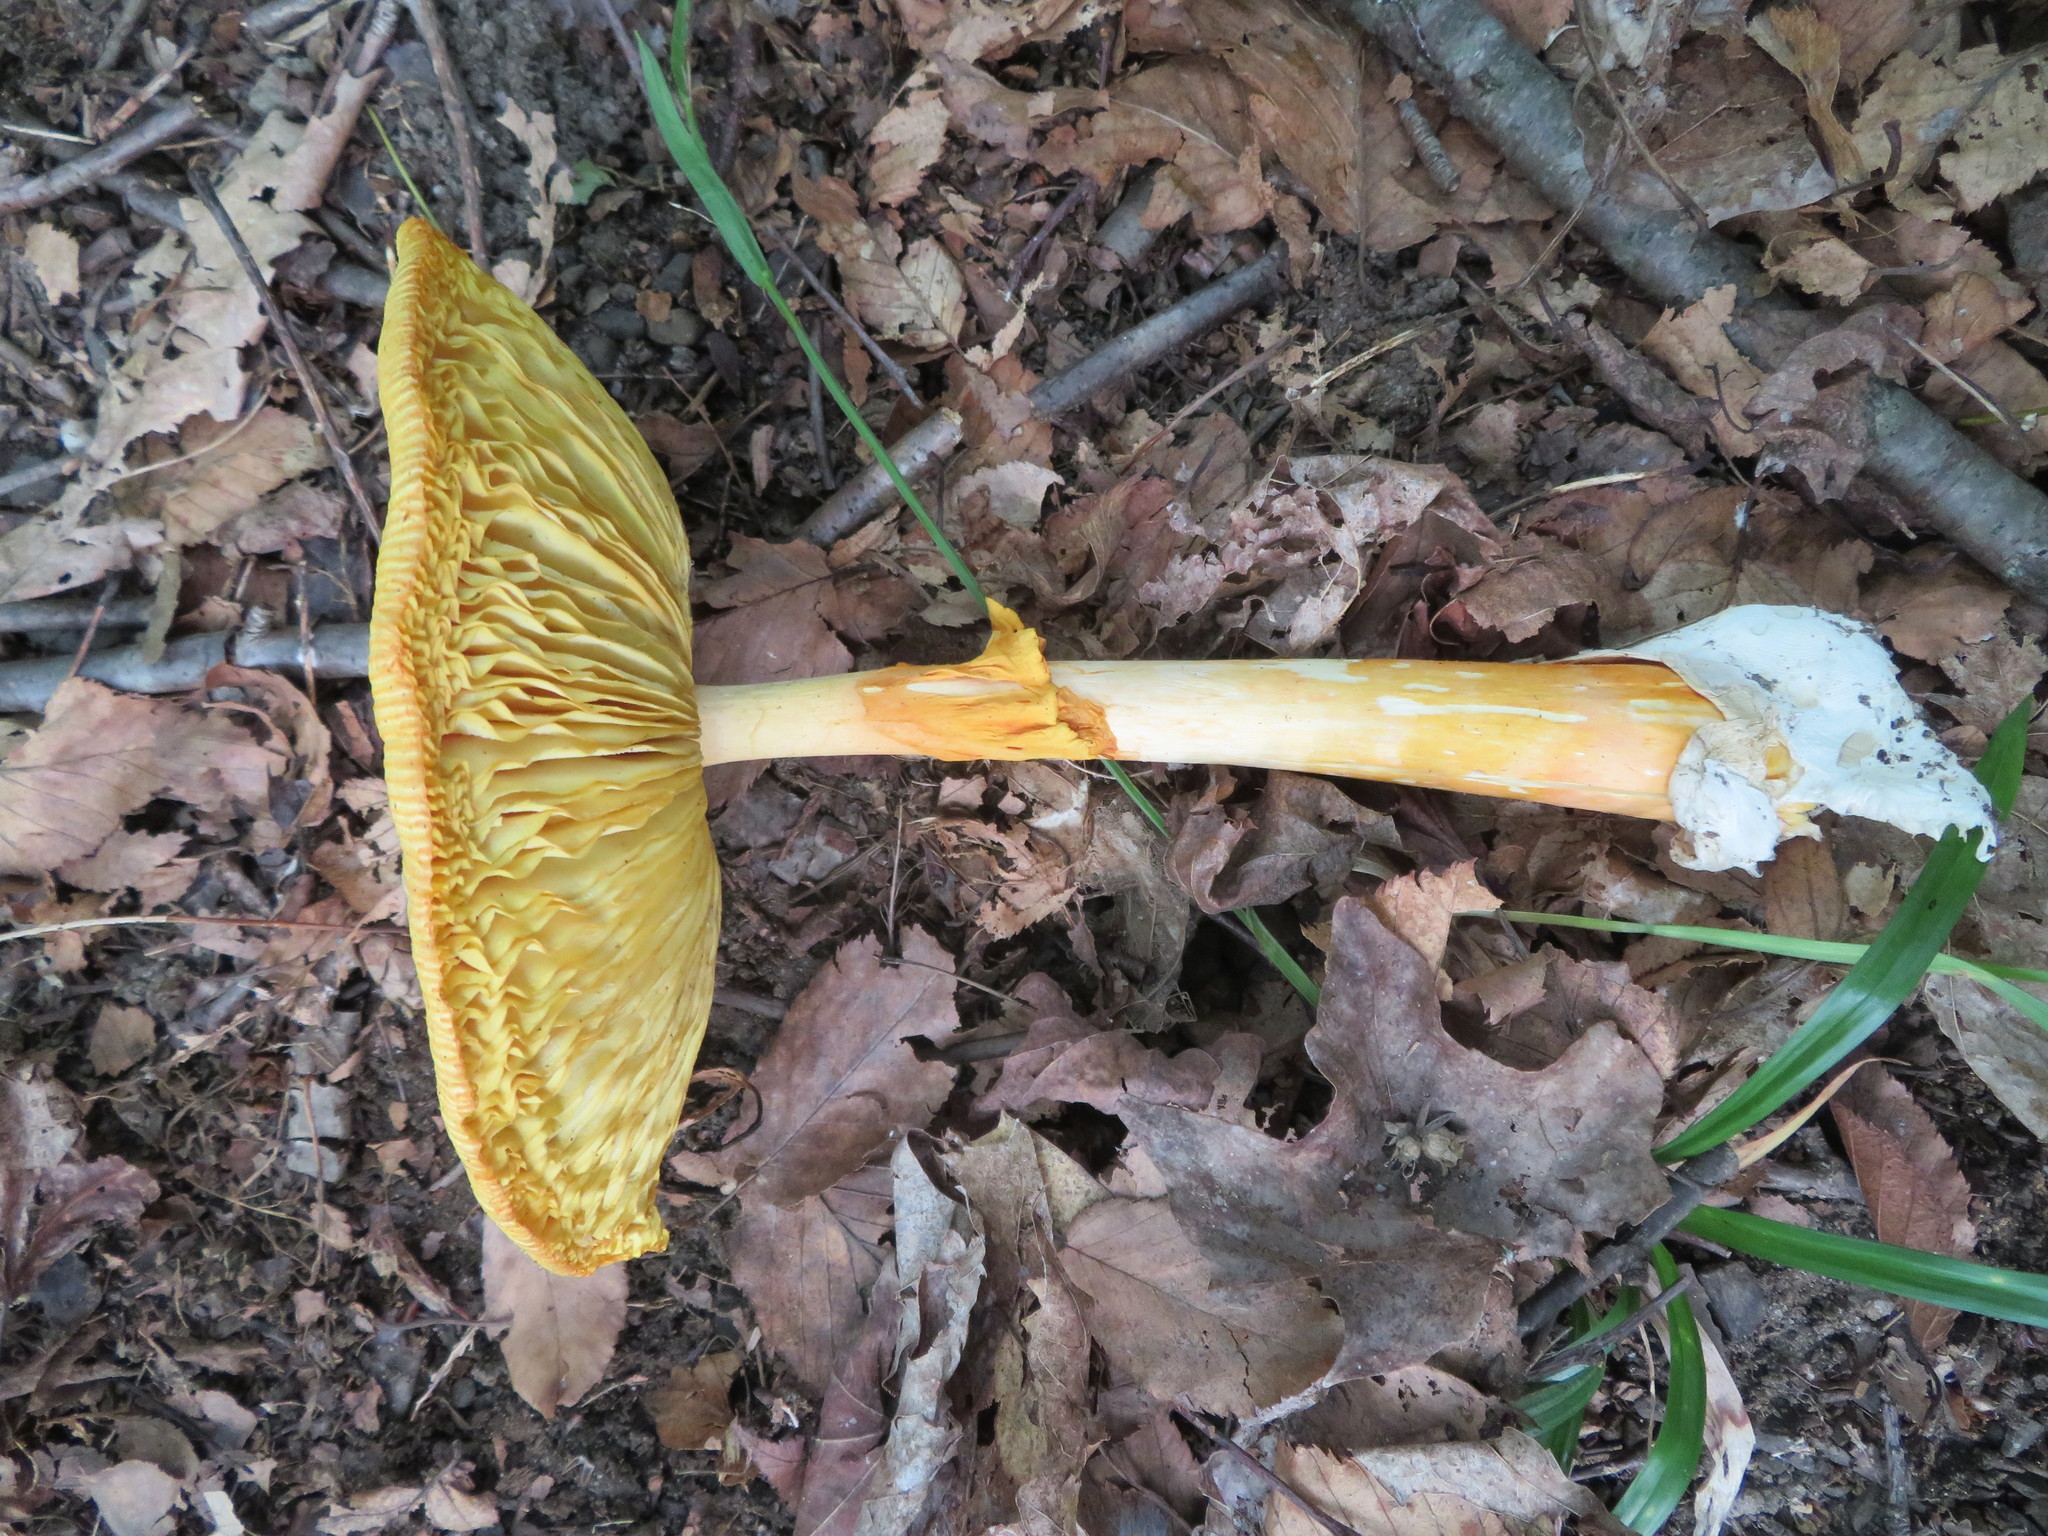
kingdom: Fungi
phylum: Basidiomycota
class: Agaricomycetes
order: Agaricales
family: Amanitaceae
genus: Amanita
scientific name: Amanita jacksonii
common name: Jackson's slender caesar
